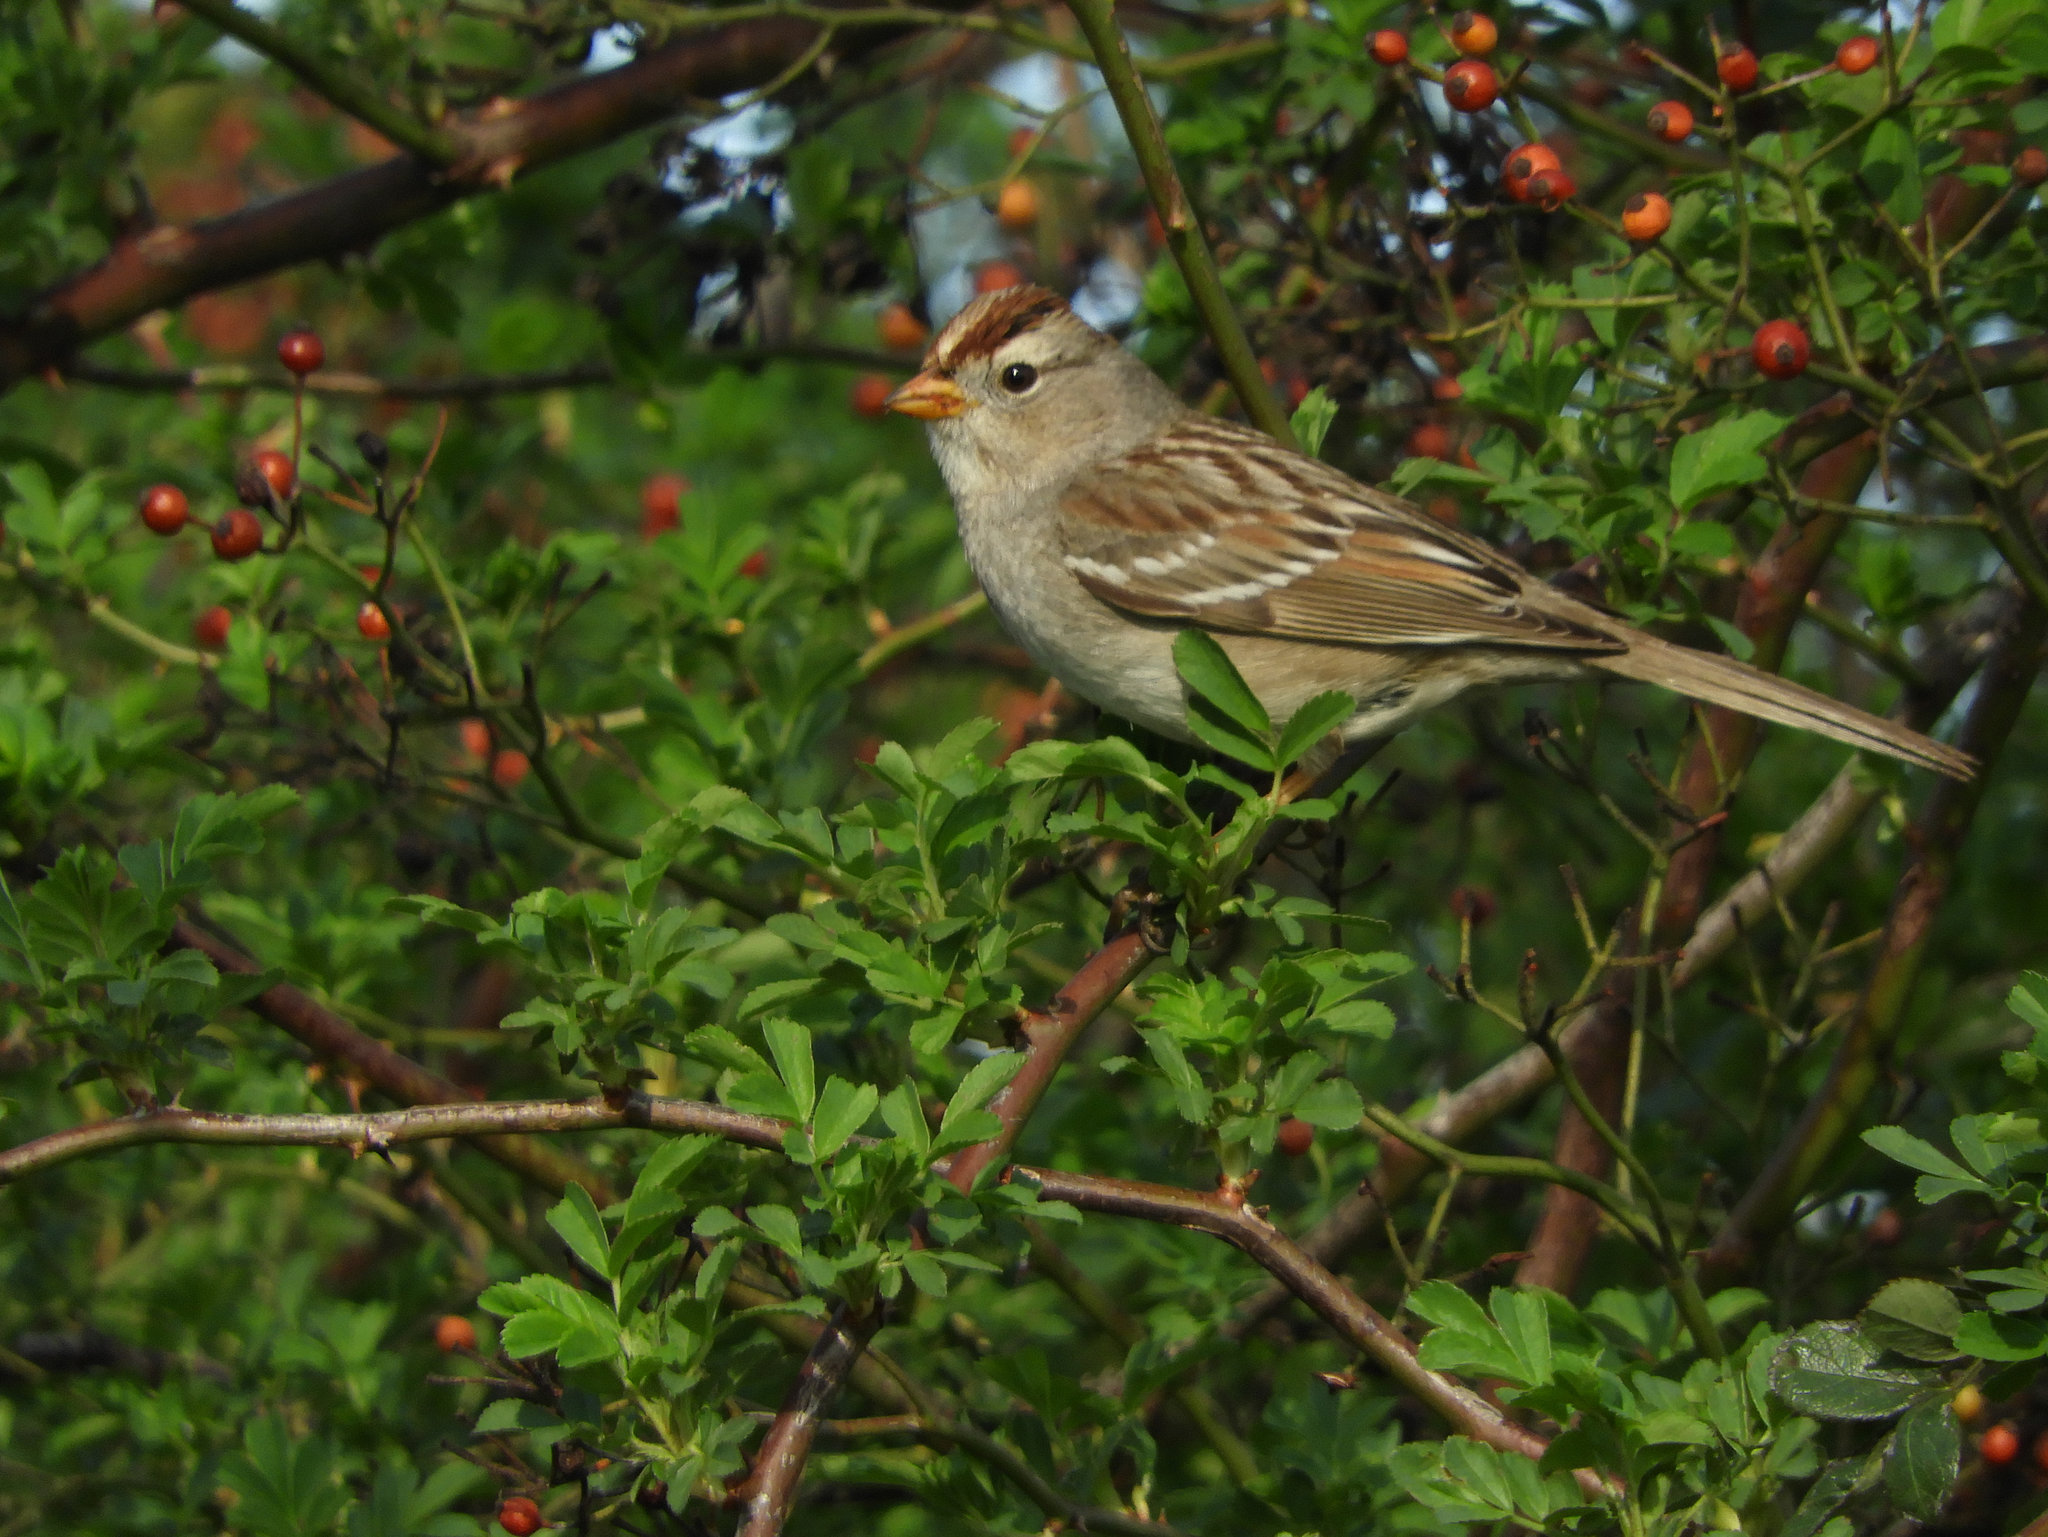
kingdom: Animalia
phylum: Chordata
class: Aves
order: Passeriformes
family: Passerellidae
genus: Zonotrichia
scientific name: Zonotrichia leucophrys
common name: White-crowned sparrow
